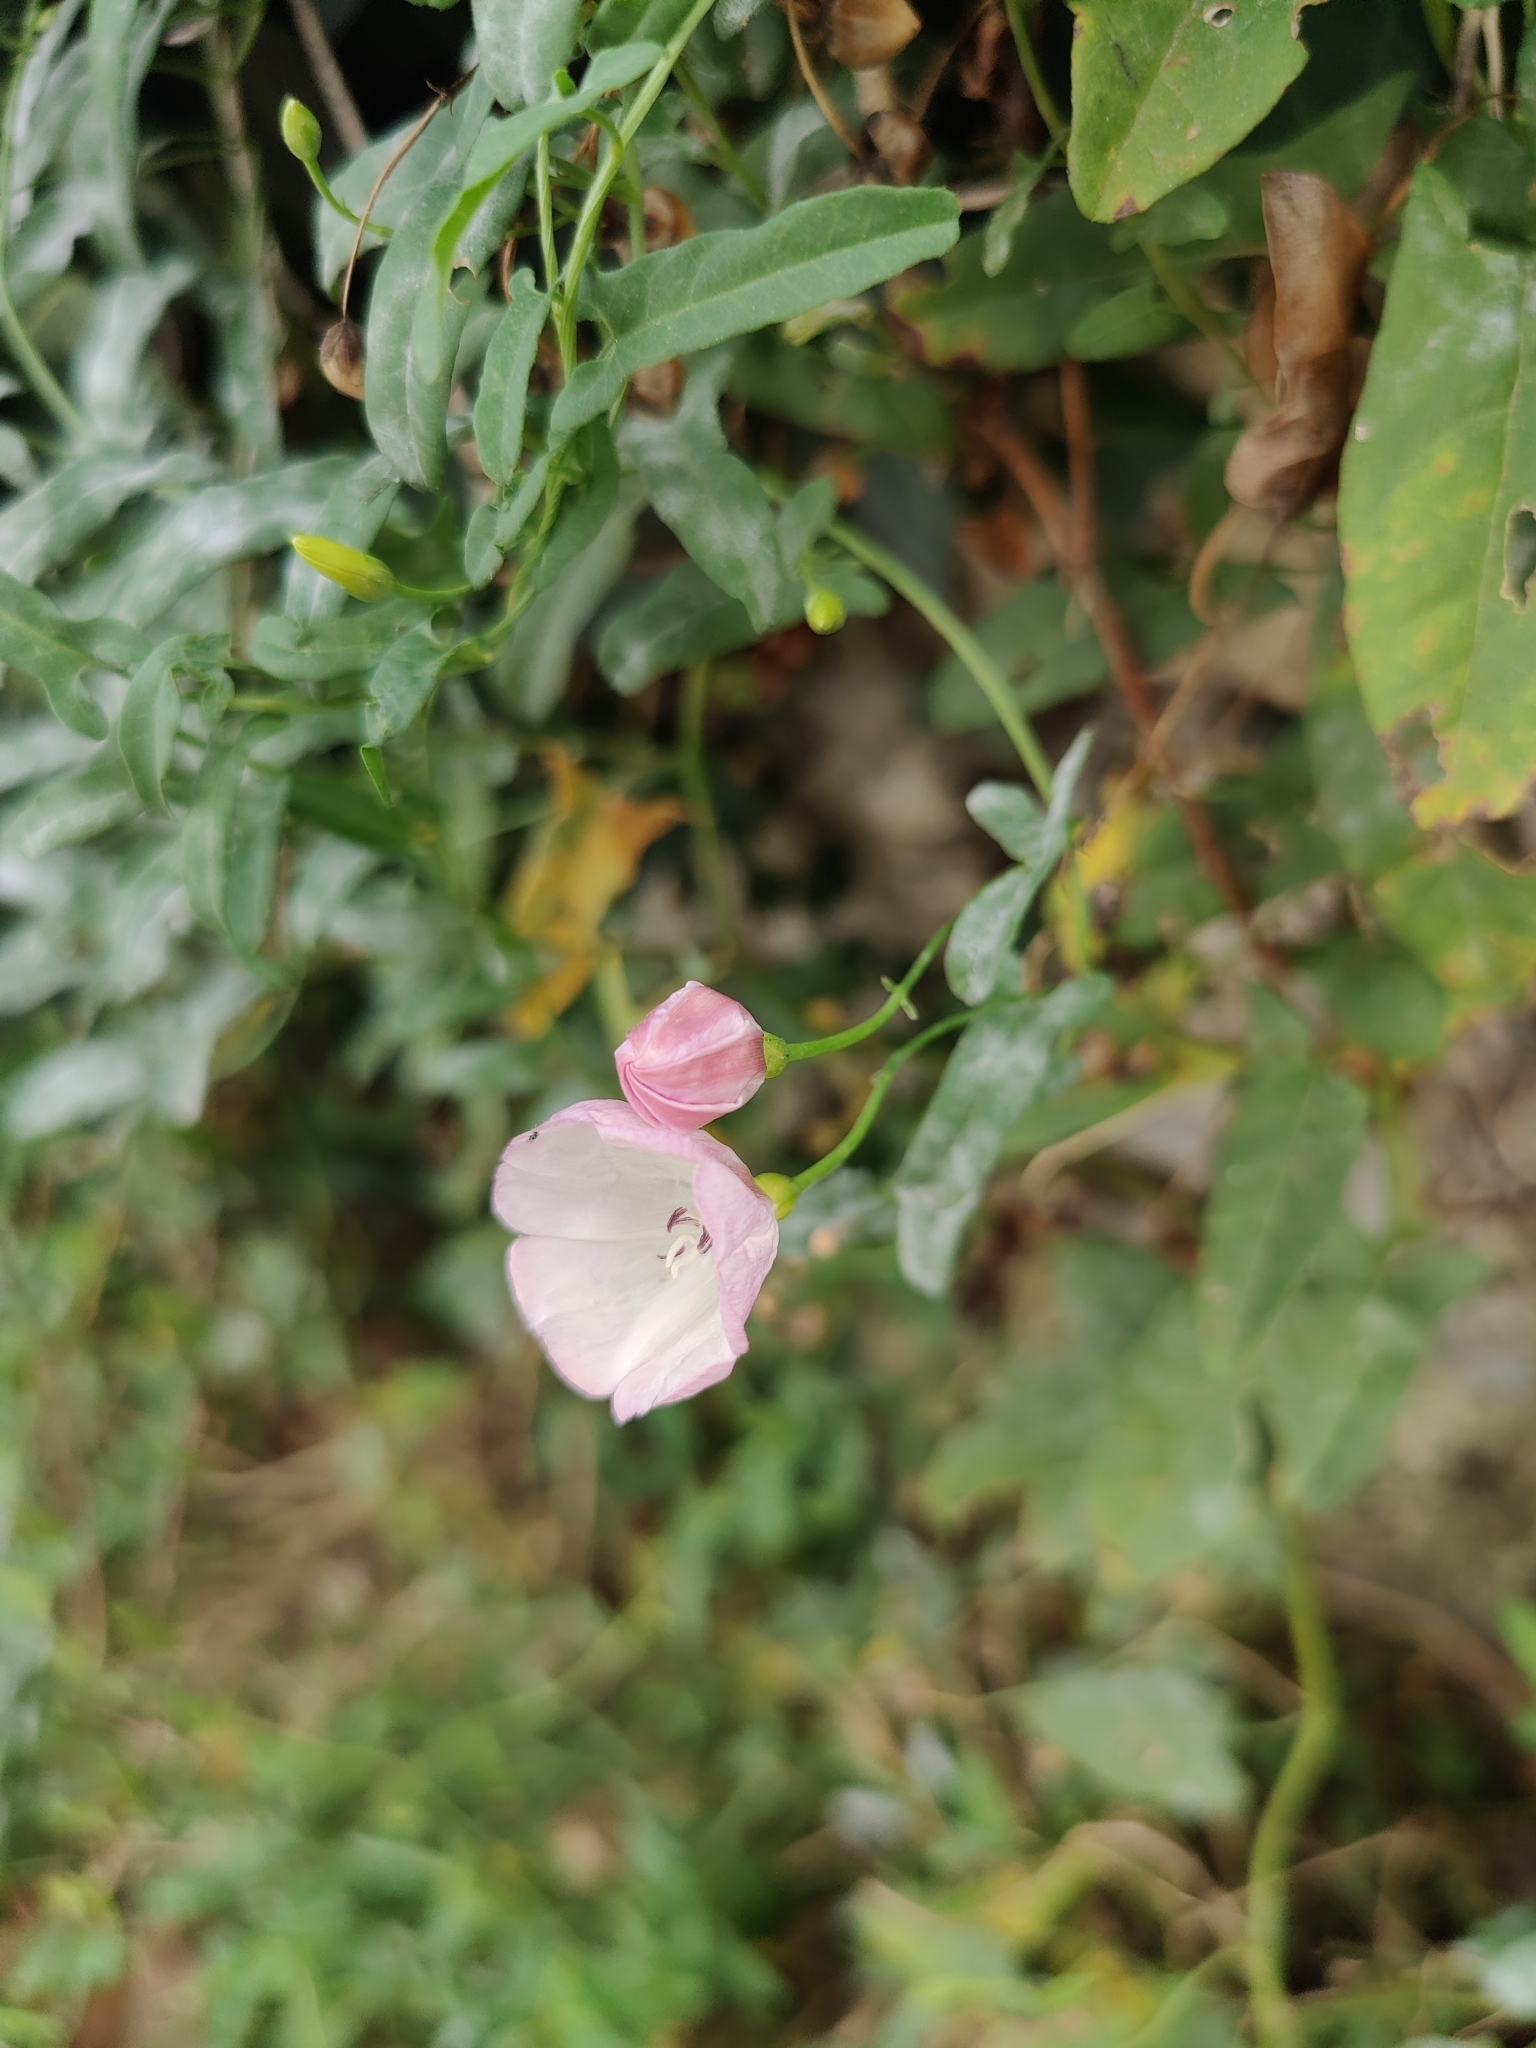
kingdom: Plantae
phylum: Tracheophyta
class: Magnoliopsida
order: Solanales
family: Convolvulaceae
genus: Convolvulus
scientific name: Convolvulus arvensis
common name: Field bindweed
